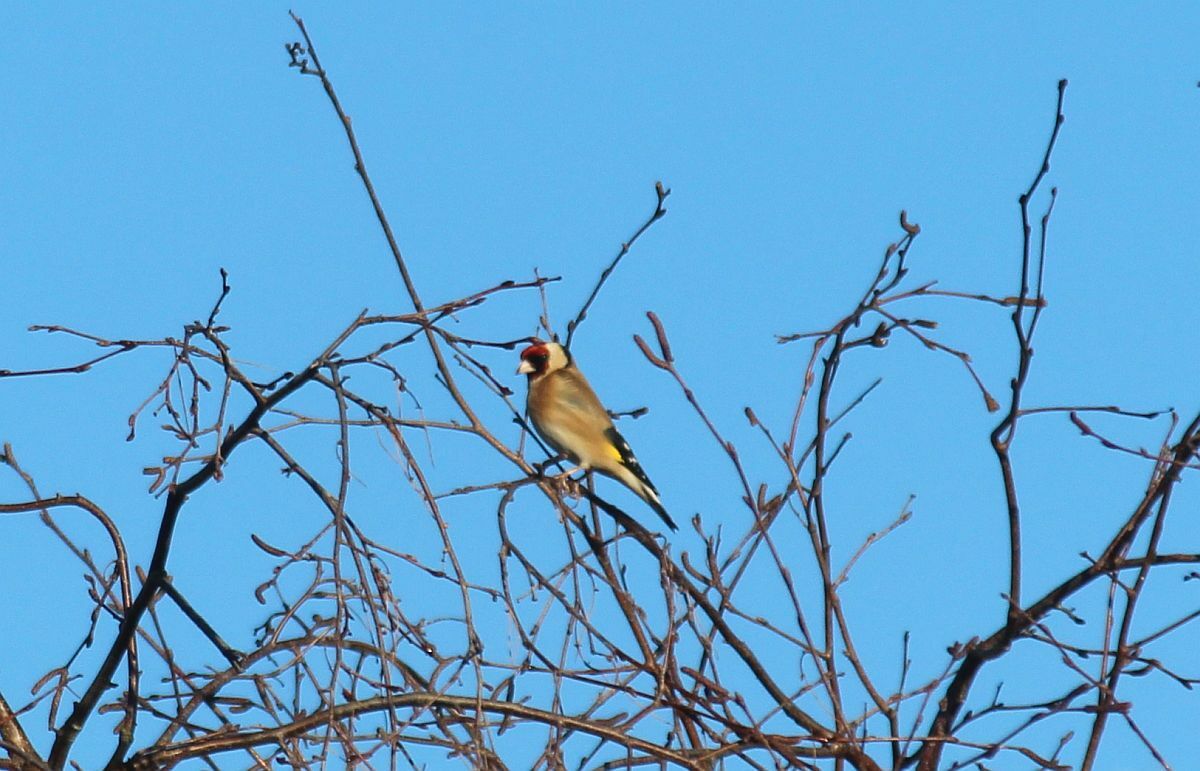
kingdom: Animalia
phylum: Chordata
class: Aves
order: Passeriformes
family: Fringillidae
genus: Carduelis
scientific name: Carduelis carduelis
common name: European goldfinch
